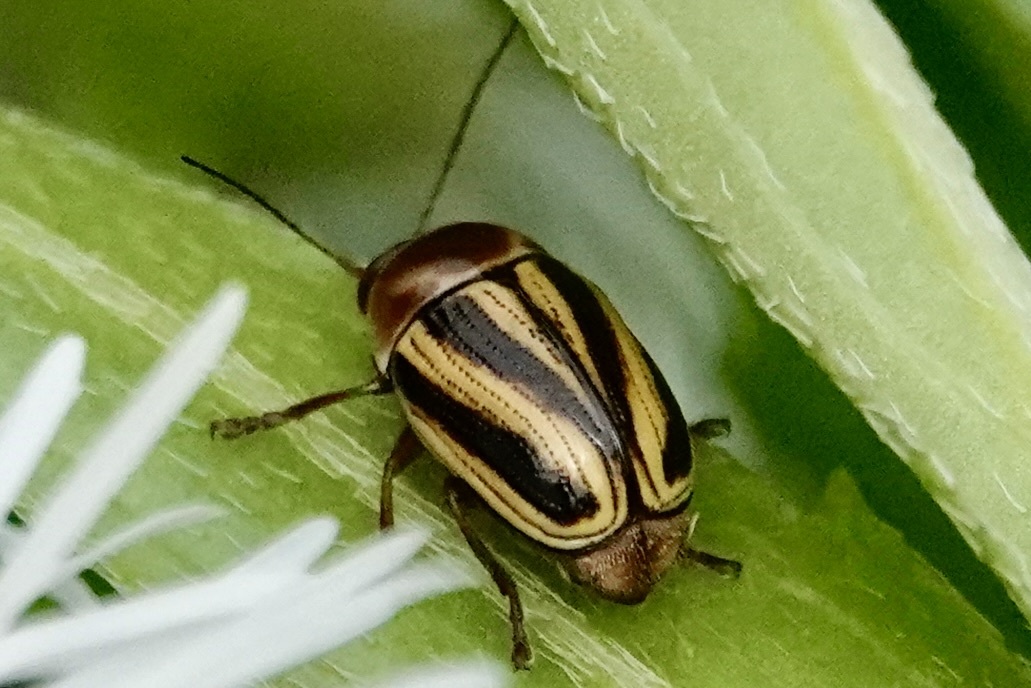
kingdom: Animalia
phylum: Arthropoda
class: Insecta
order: Coleoptera
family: Chrysomelidae
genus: Cryptocephalus
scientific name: Cryptocephalus venustus
